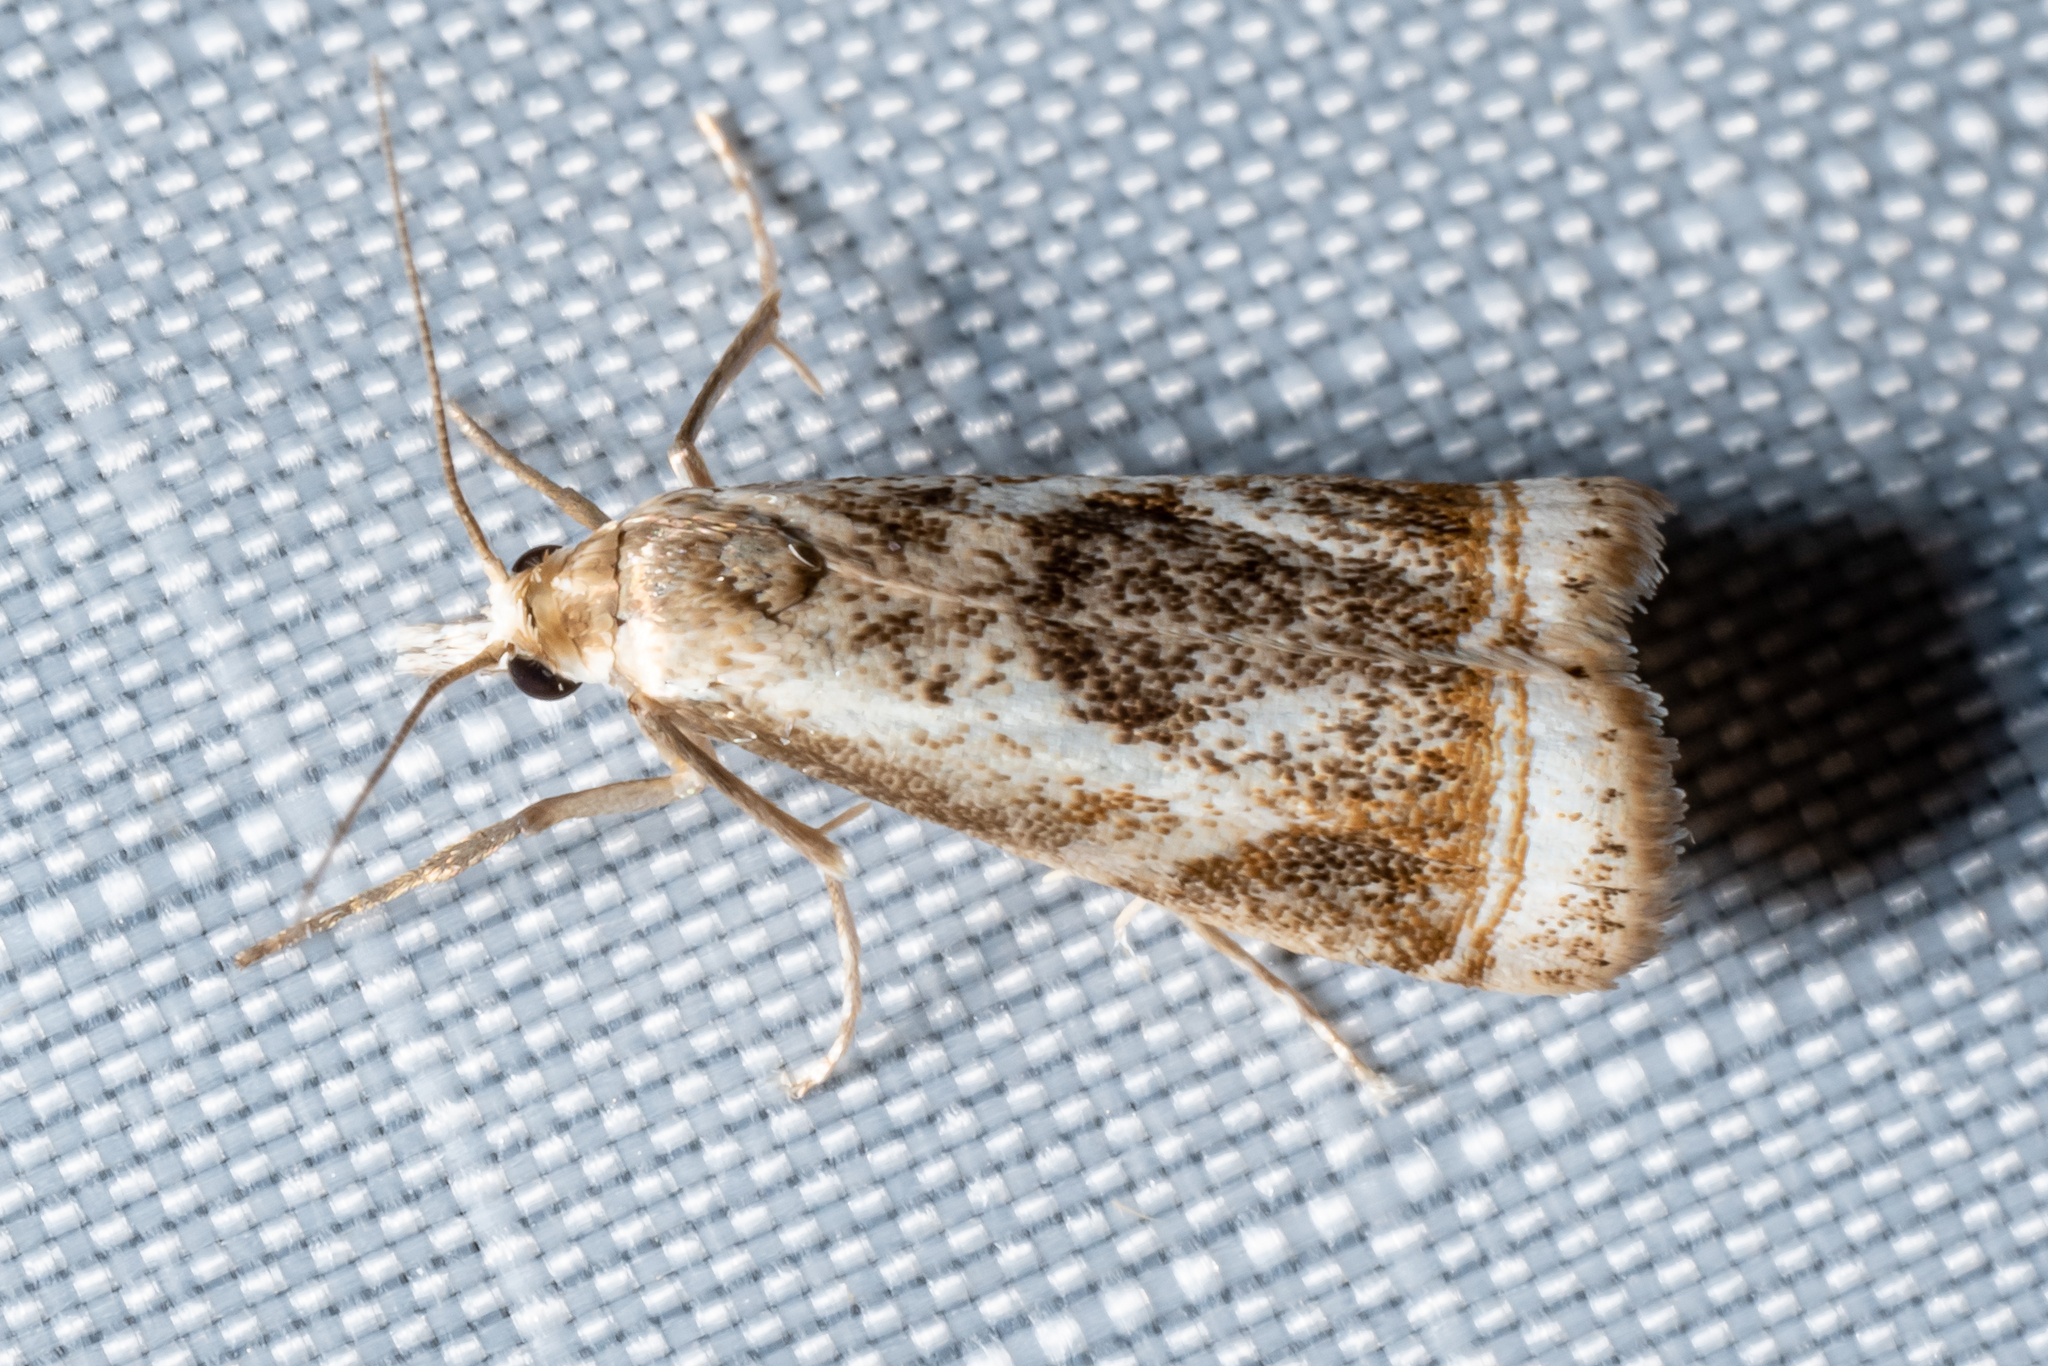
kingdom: Animalia
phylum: Arthropoda
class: Insecta
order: Lepidoptera
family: Crambidae
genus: Microcrambus
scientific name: Microcrambus elegans
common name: Elegant grass-veneer
